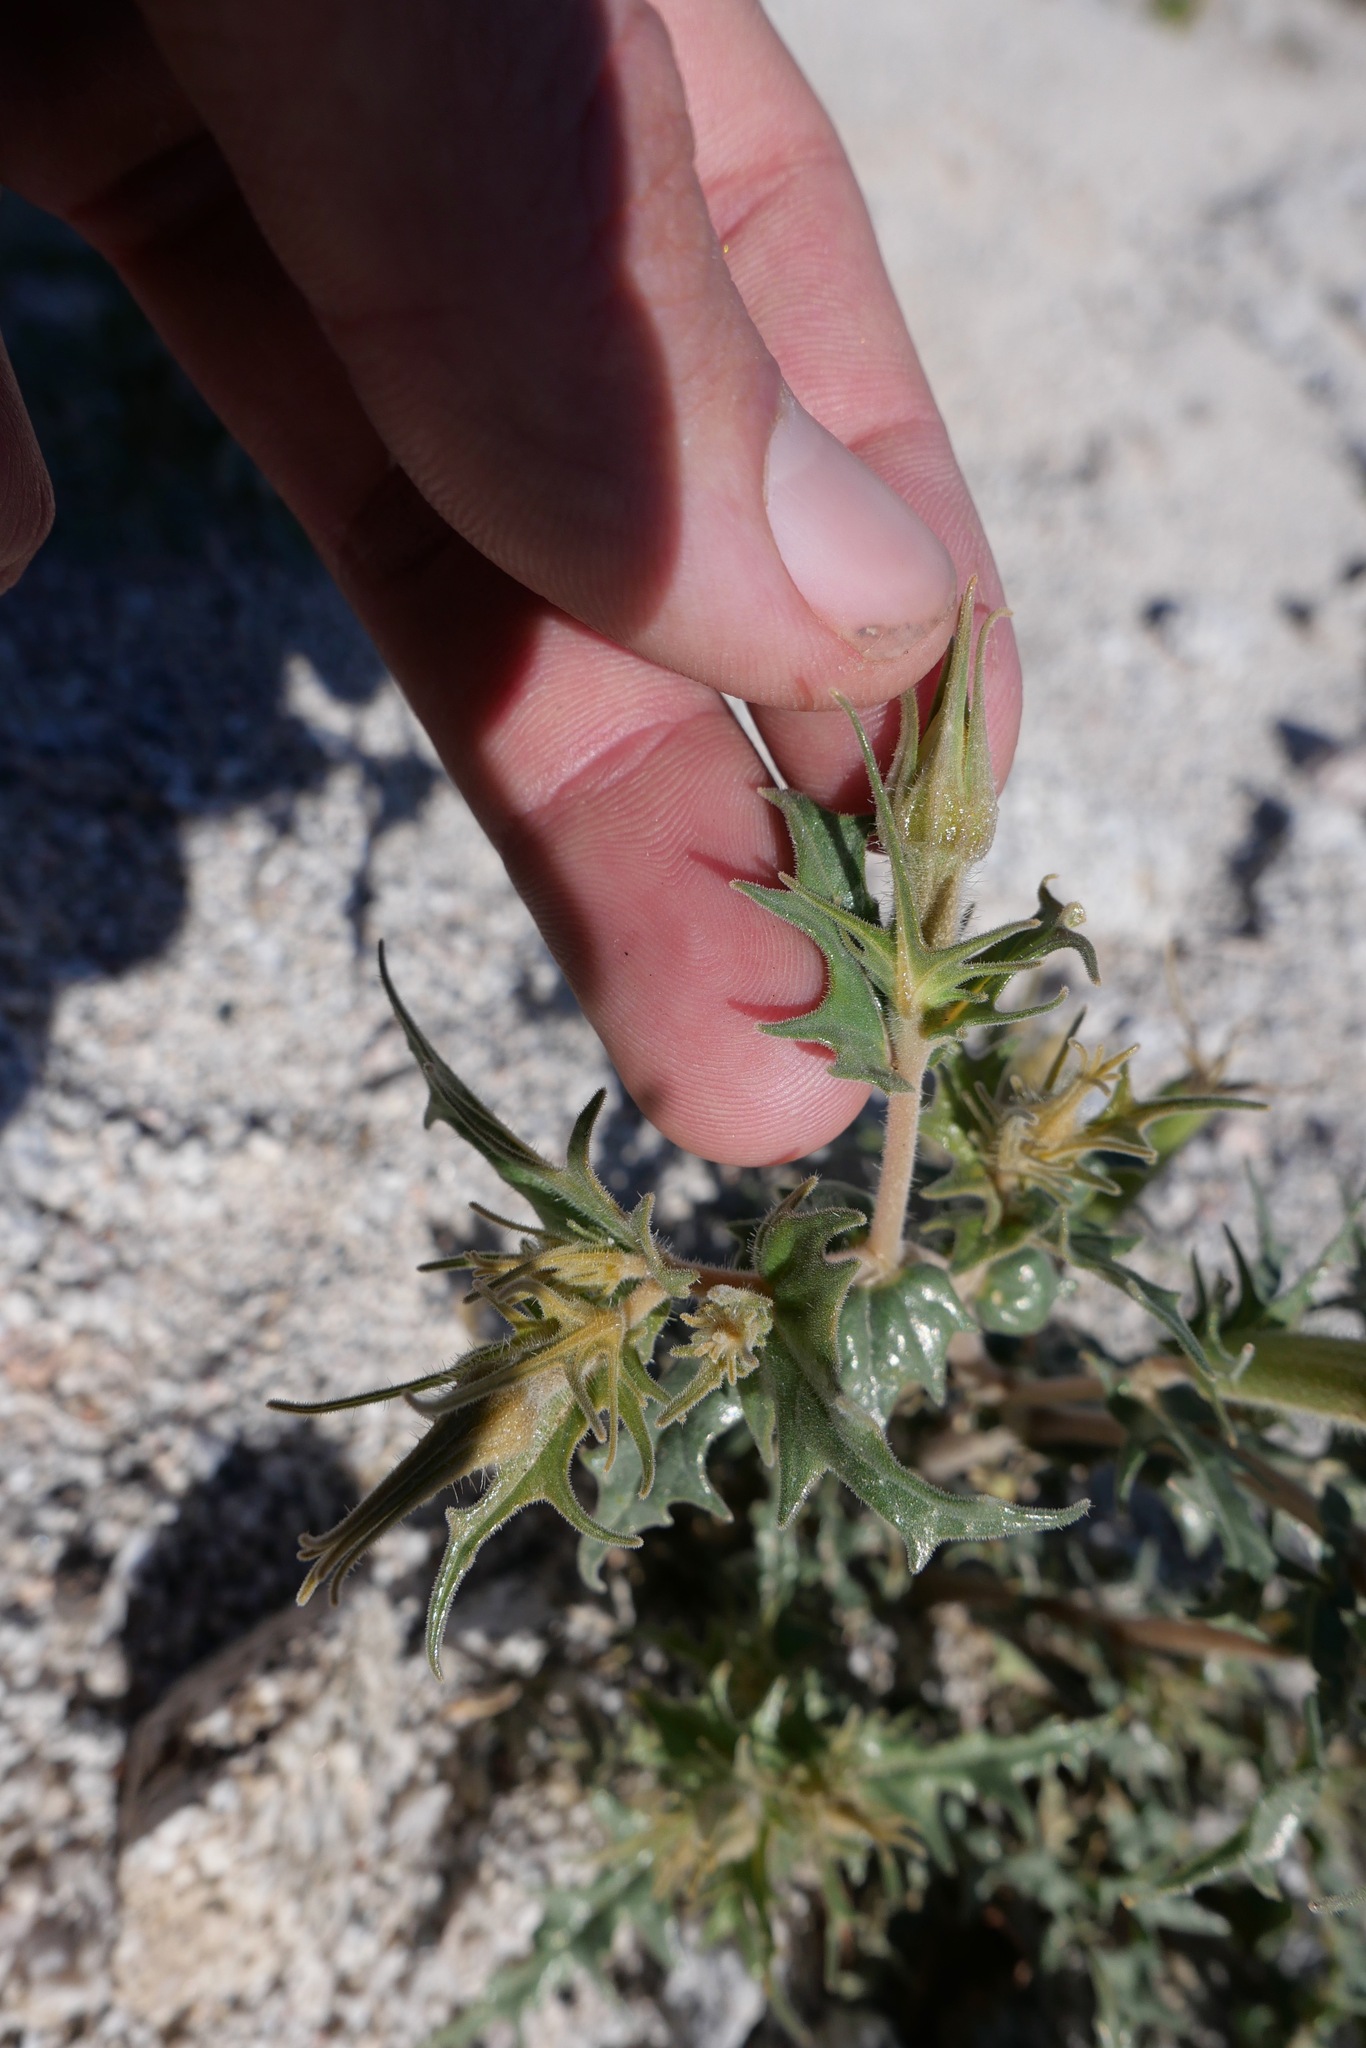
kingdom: Plantae
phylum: Tracheophyta
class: Magnoliopsida
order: Cornales
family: Loasaceae
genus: Mentzelia
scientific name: Mentzelia hirsutissima
